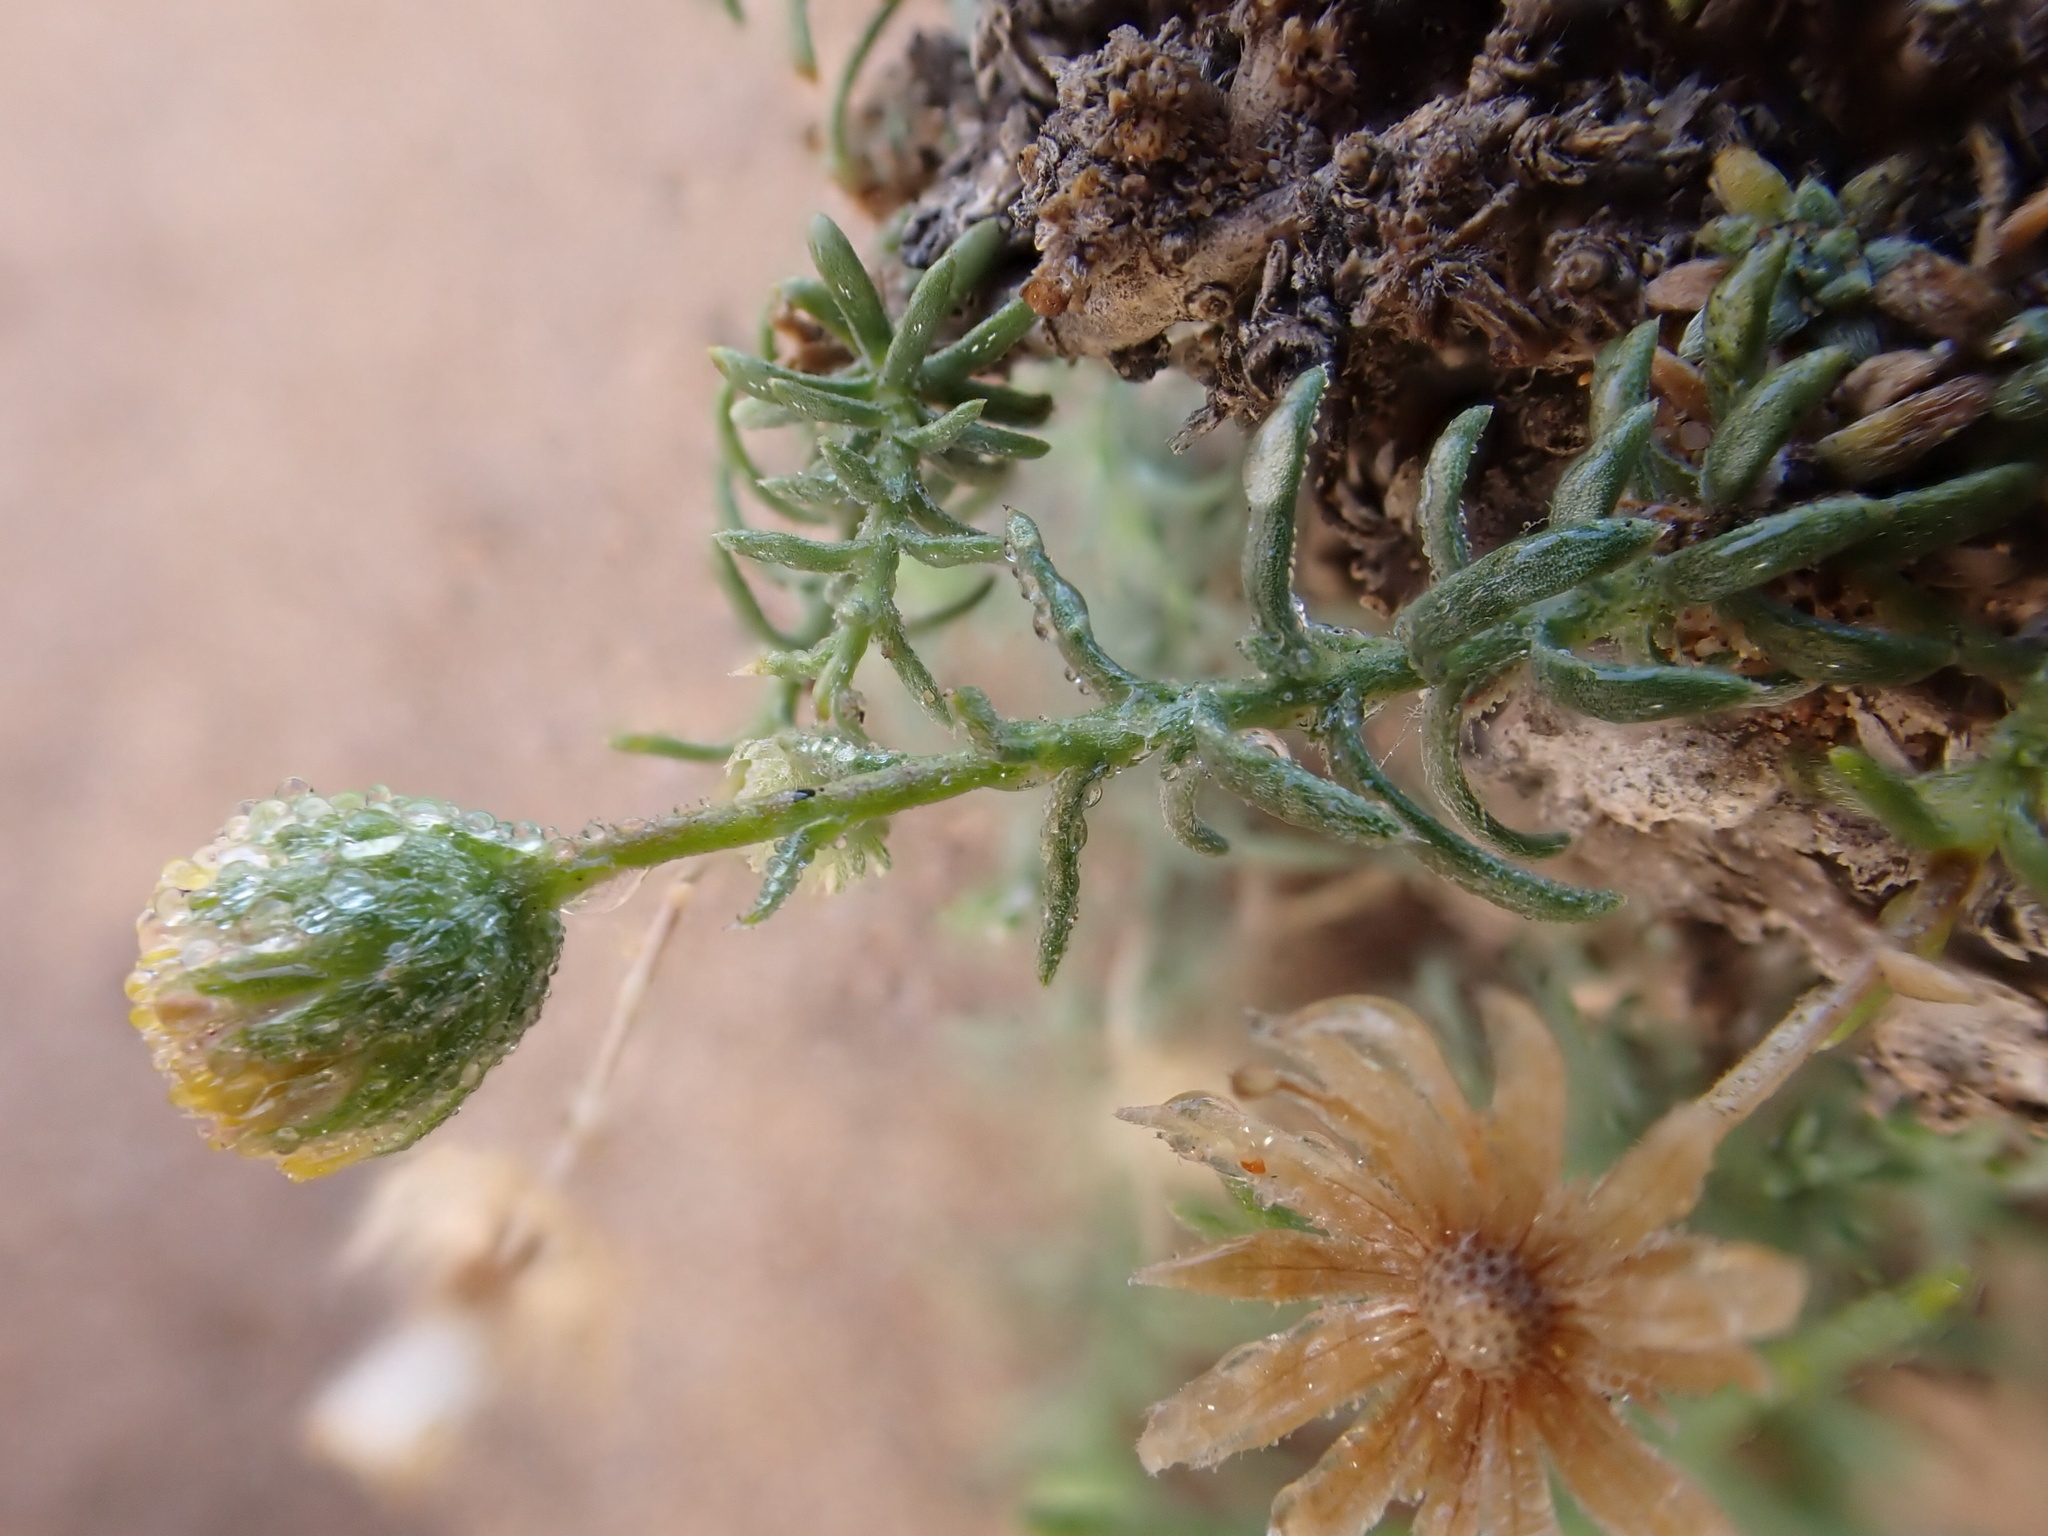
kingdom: Plantae
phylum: Tracheophyta
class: Magnoliopsida
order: Asterales
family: Asteraceae
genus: Nolletia
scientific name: Nolletia chrysocomoides
